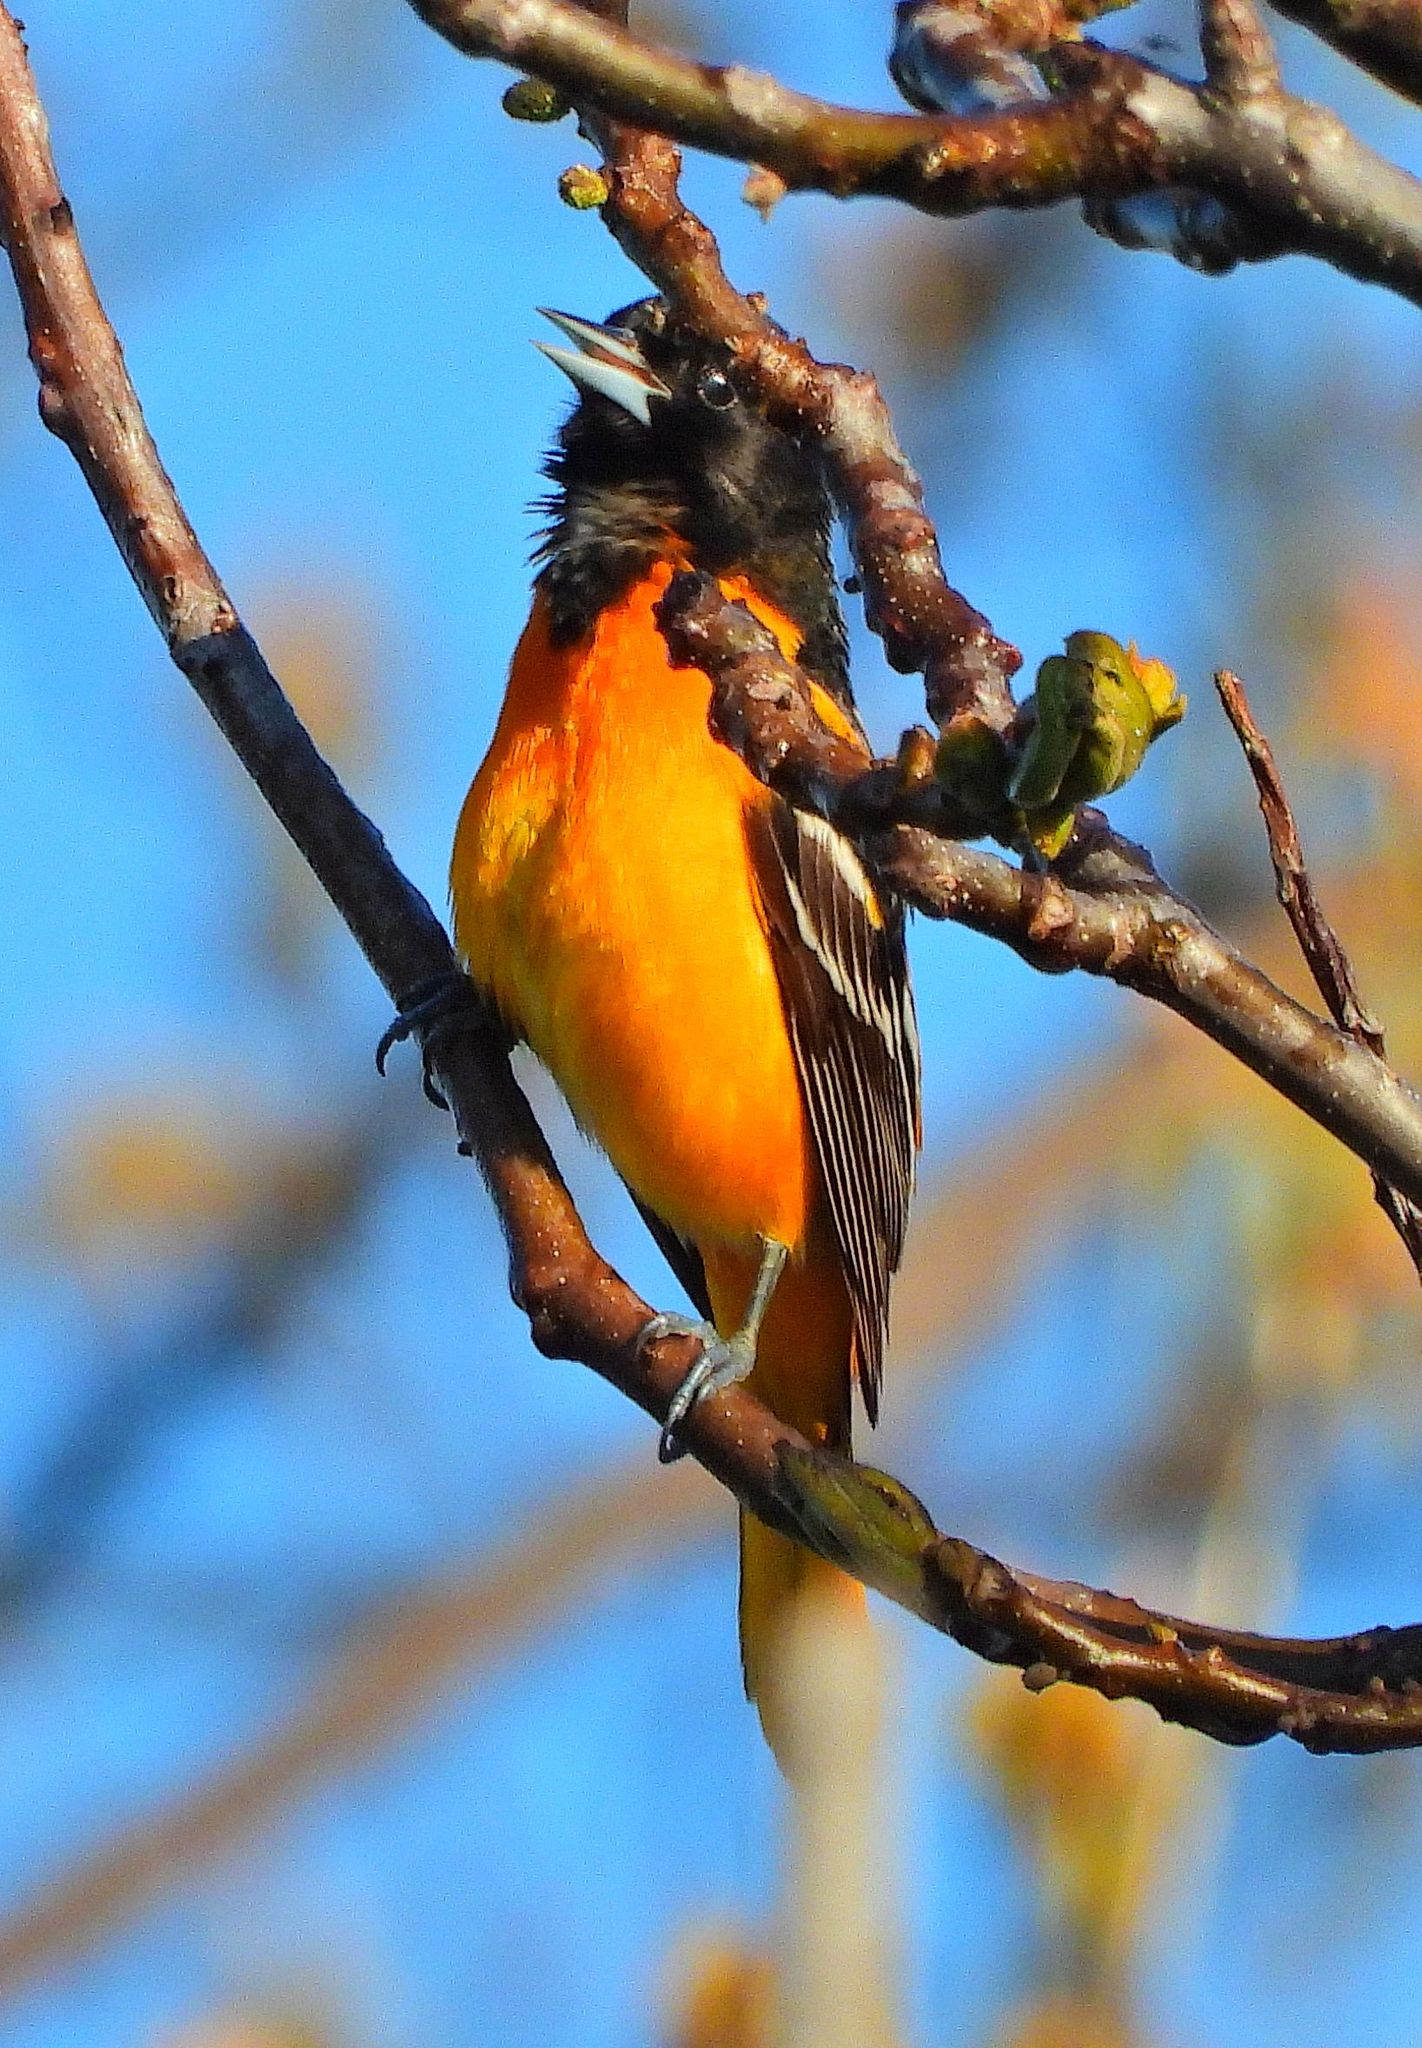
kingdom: Animalia
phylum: Chordata
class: Aves
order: Passeriformes
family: Icteridae
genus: Icterus
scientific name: Icterus galbula
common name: Baltimore oriole
